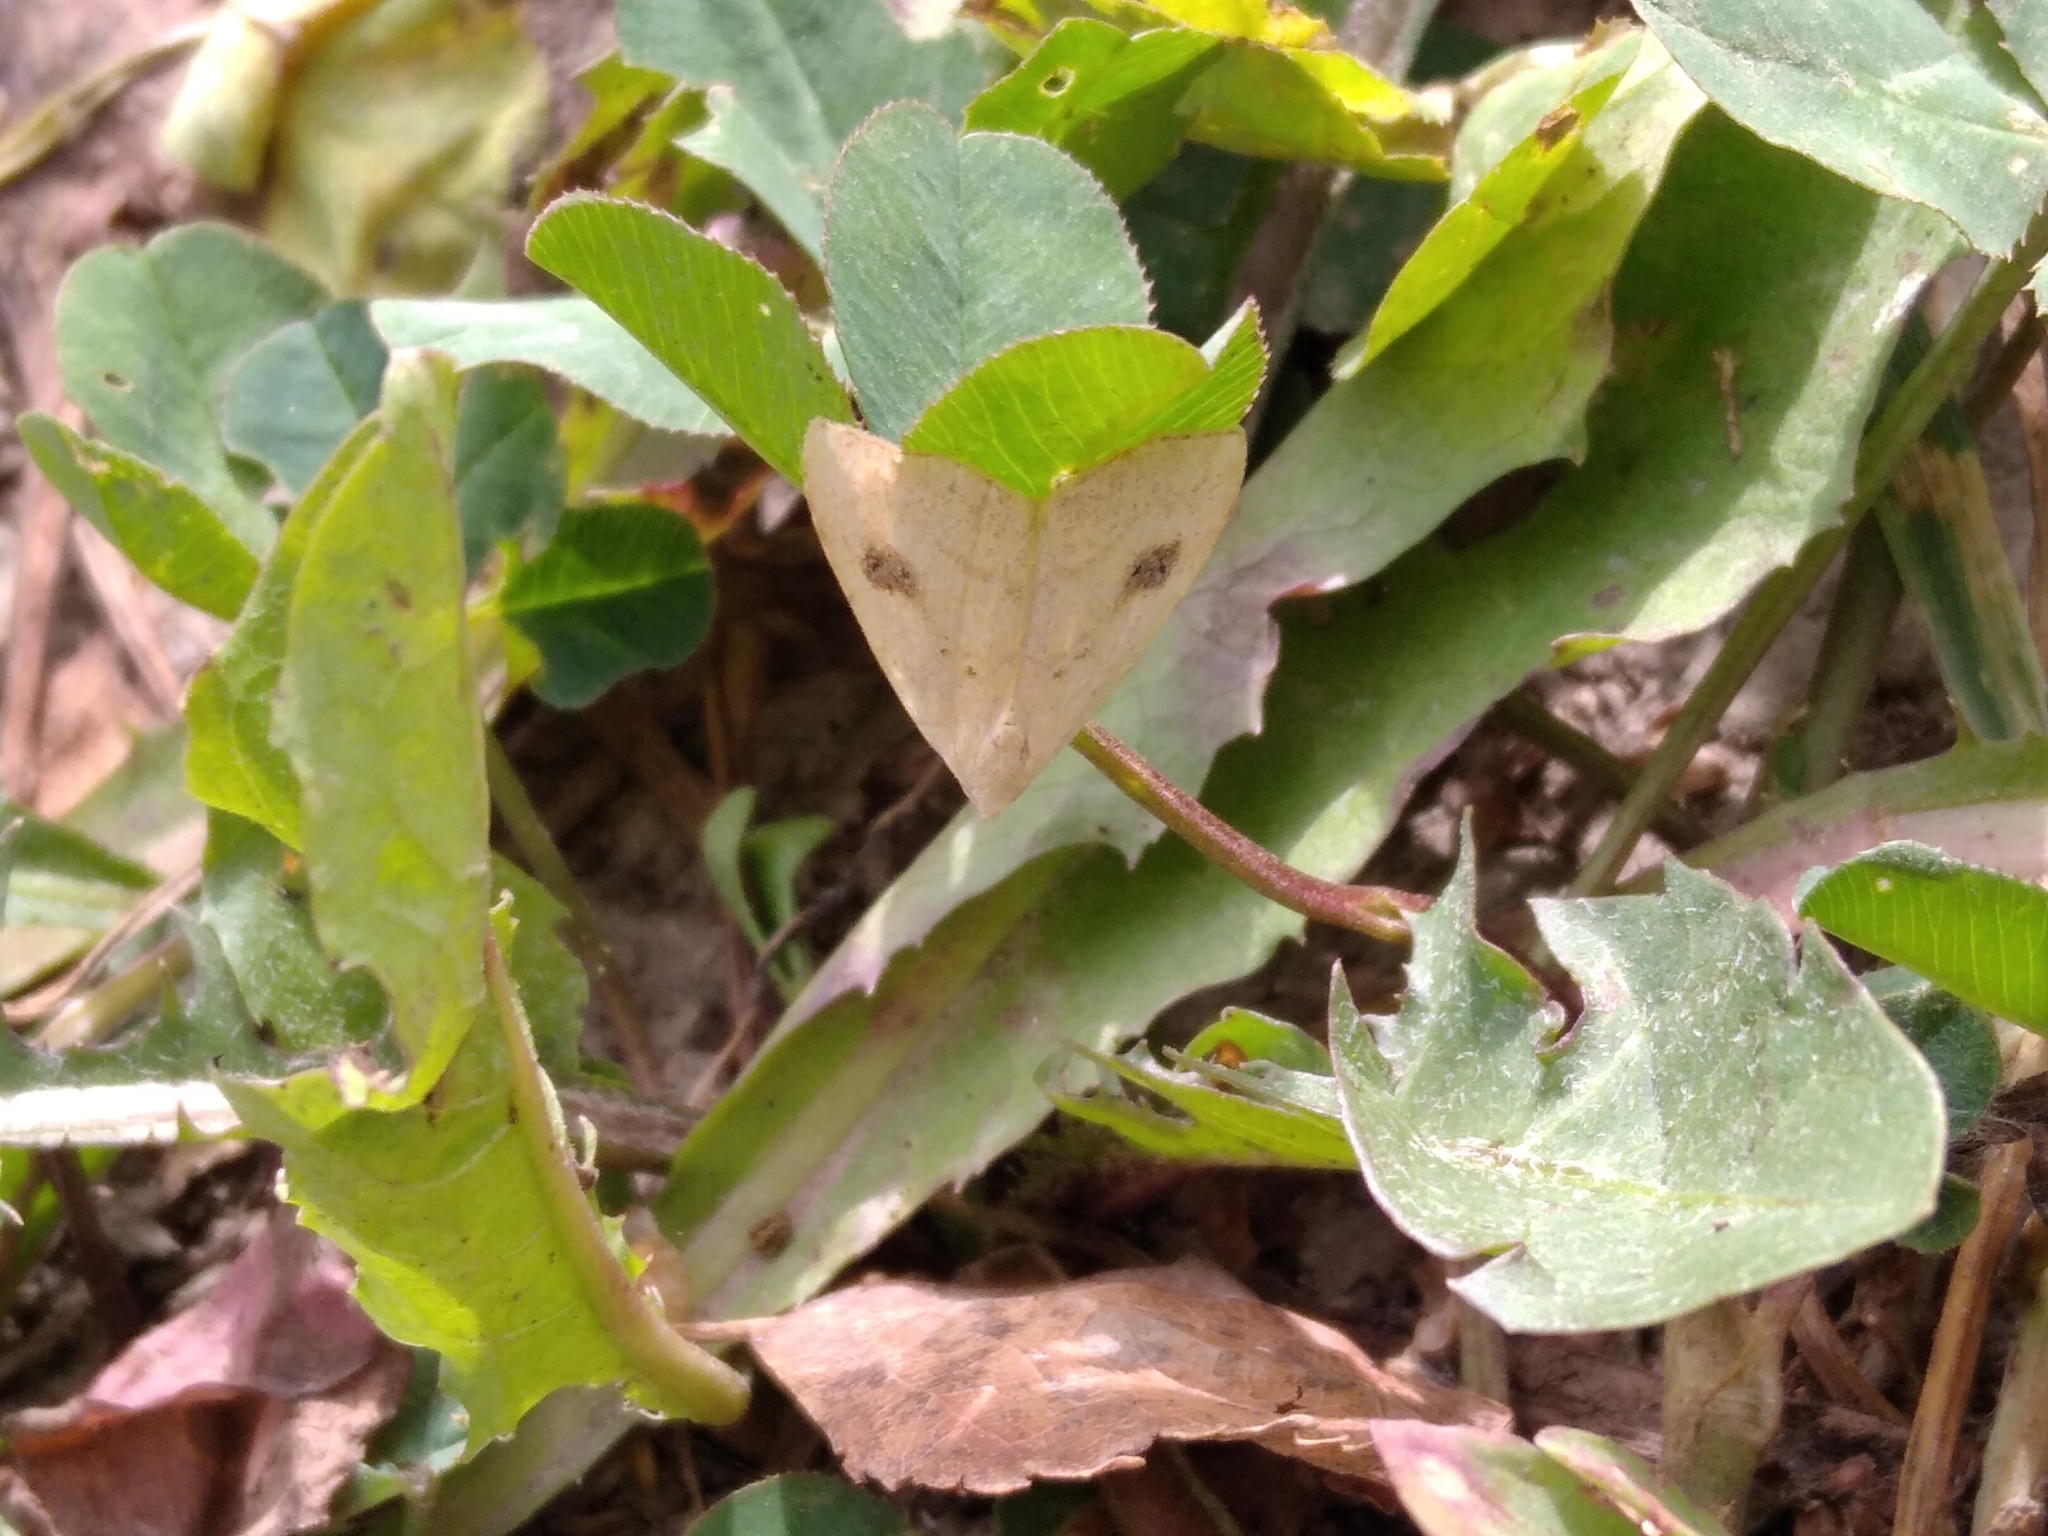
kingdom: Animalia
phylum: Arthropoda
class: Insecta
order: Lepidoptera
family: Erebidae
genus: Rivula
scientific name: Rivula sericealis
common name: Straw dot
